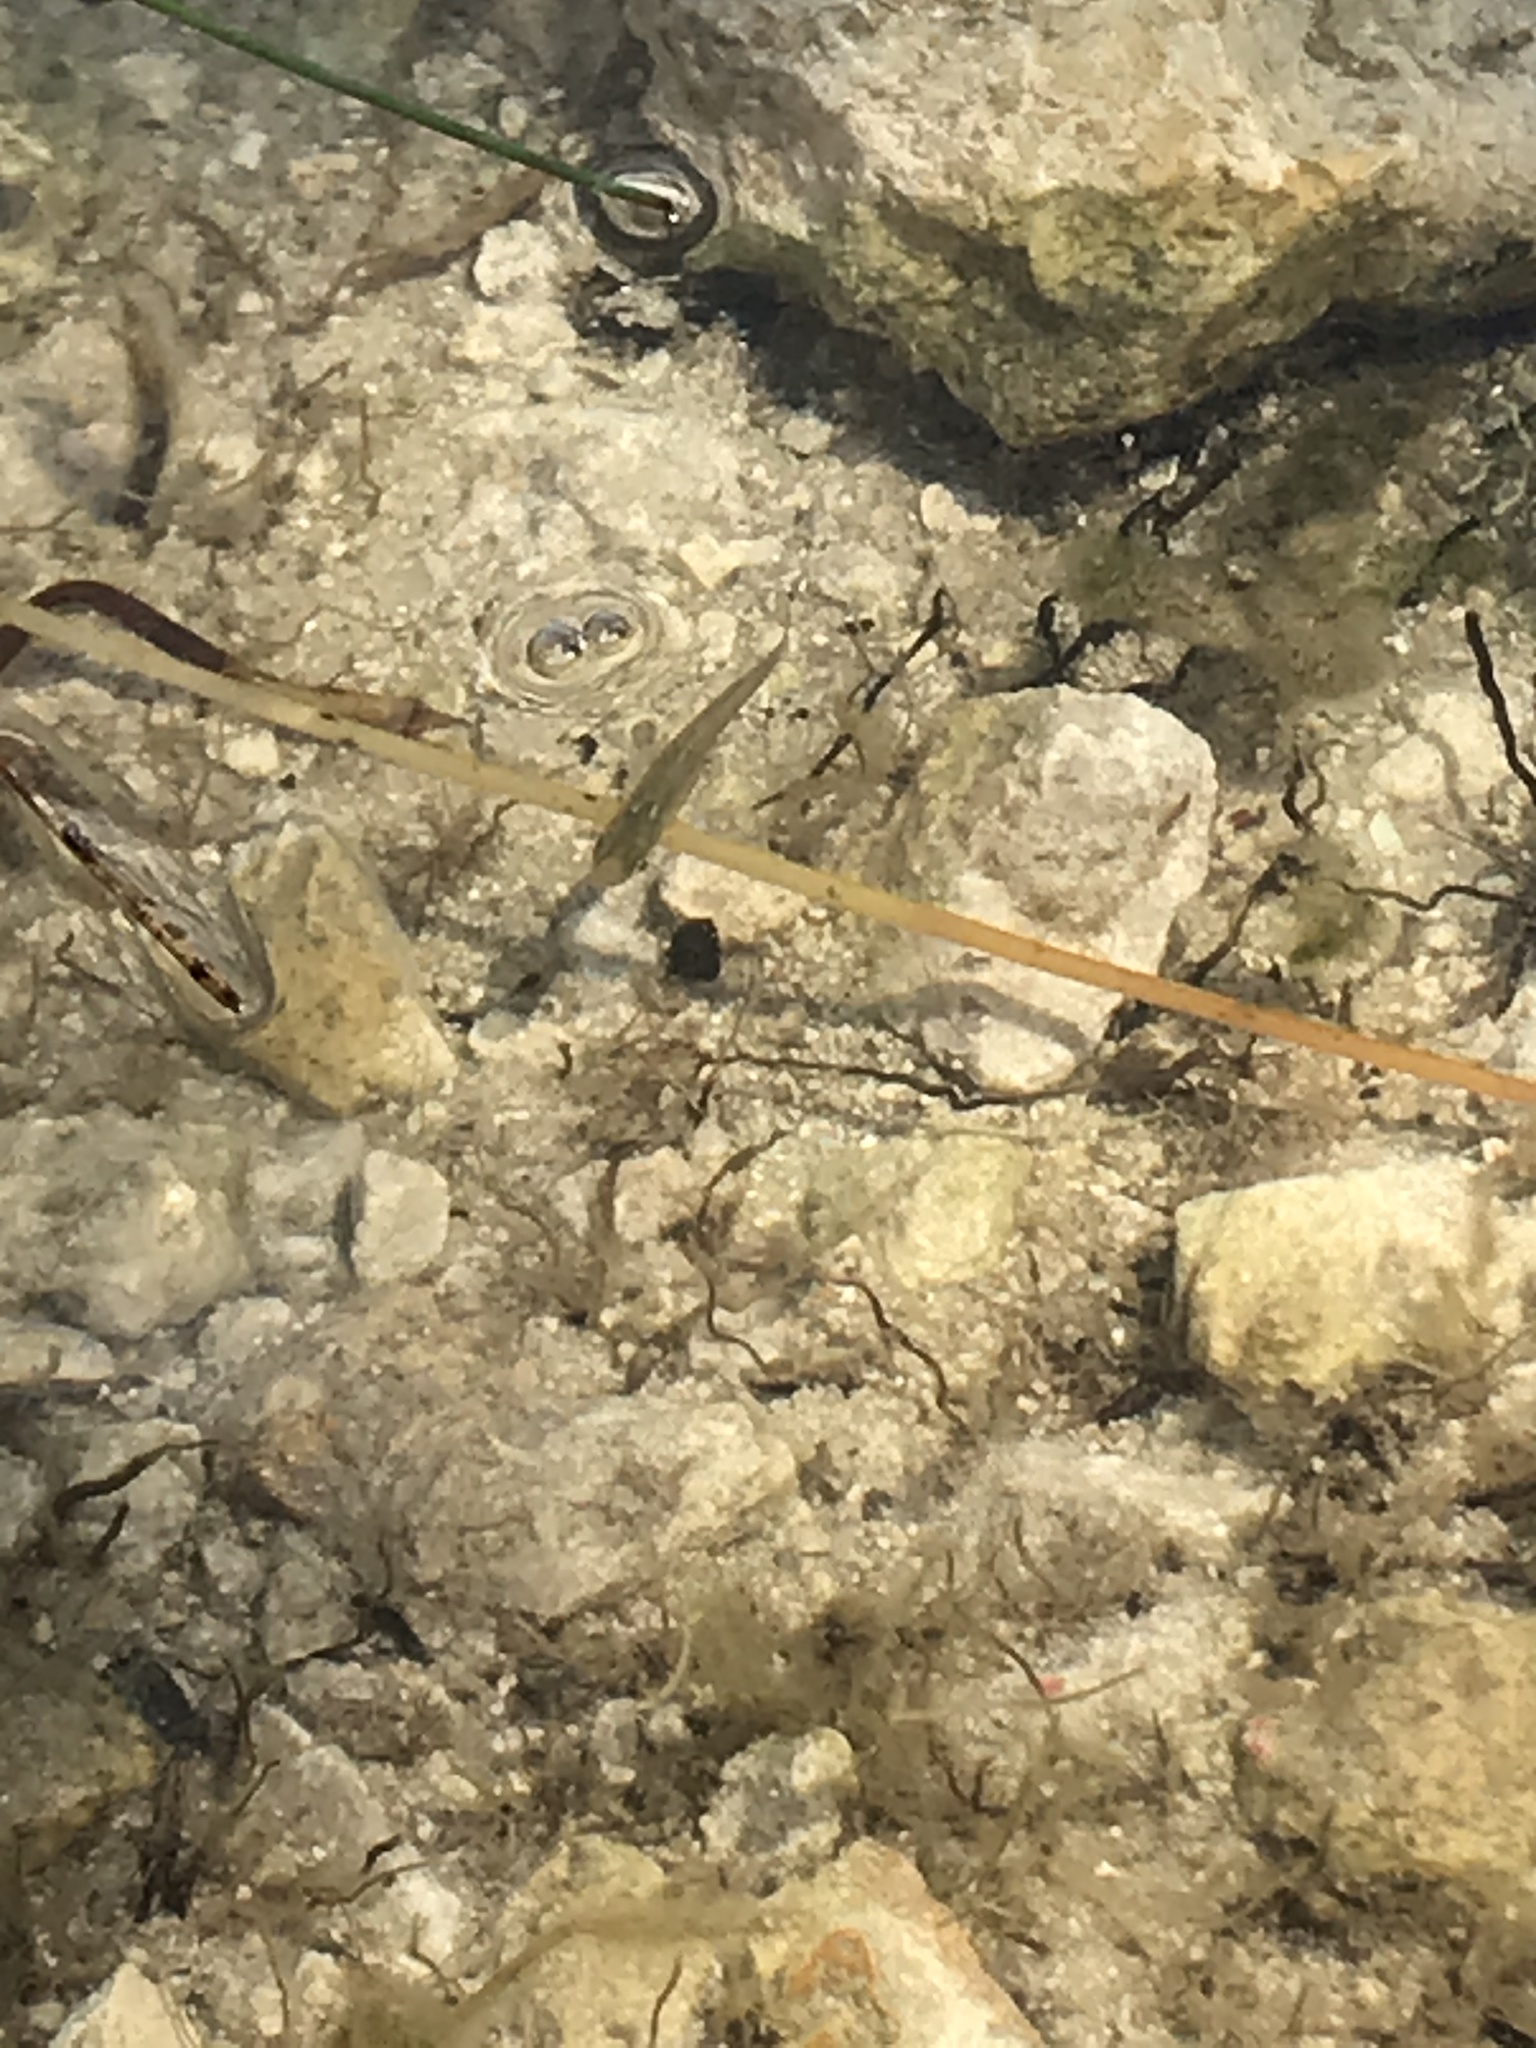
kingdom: Animalia
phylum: Chordata
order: Cyprinodontiformes
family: Poeciliidae
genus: Gambusia
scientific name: Gambusia holbrooki
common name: Eastern mosquitofish
